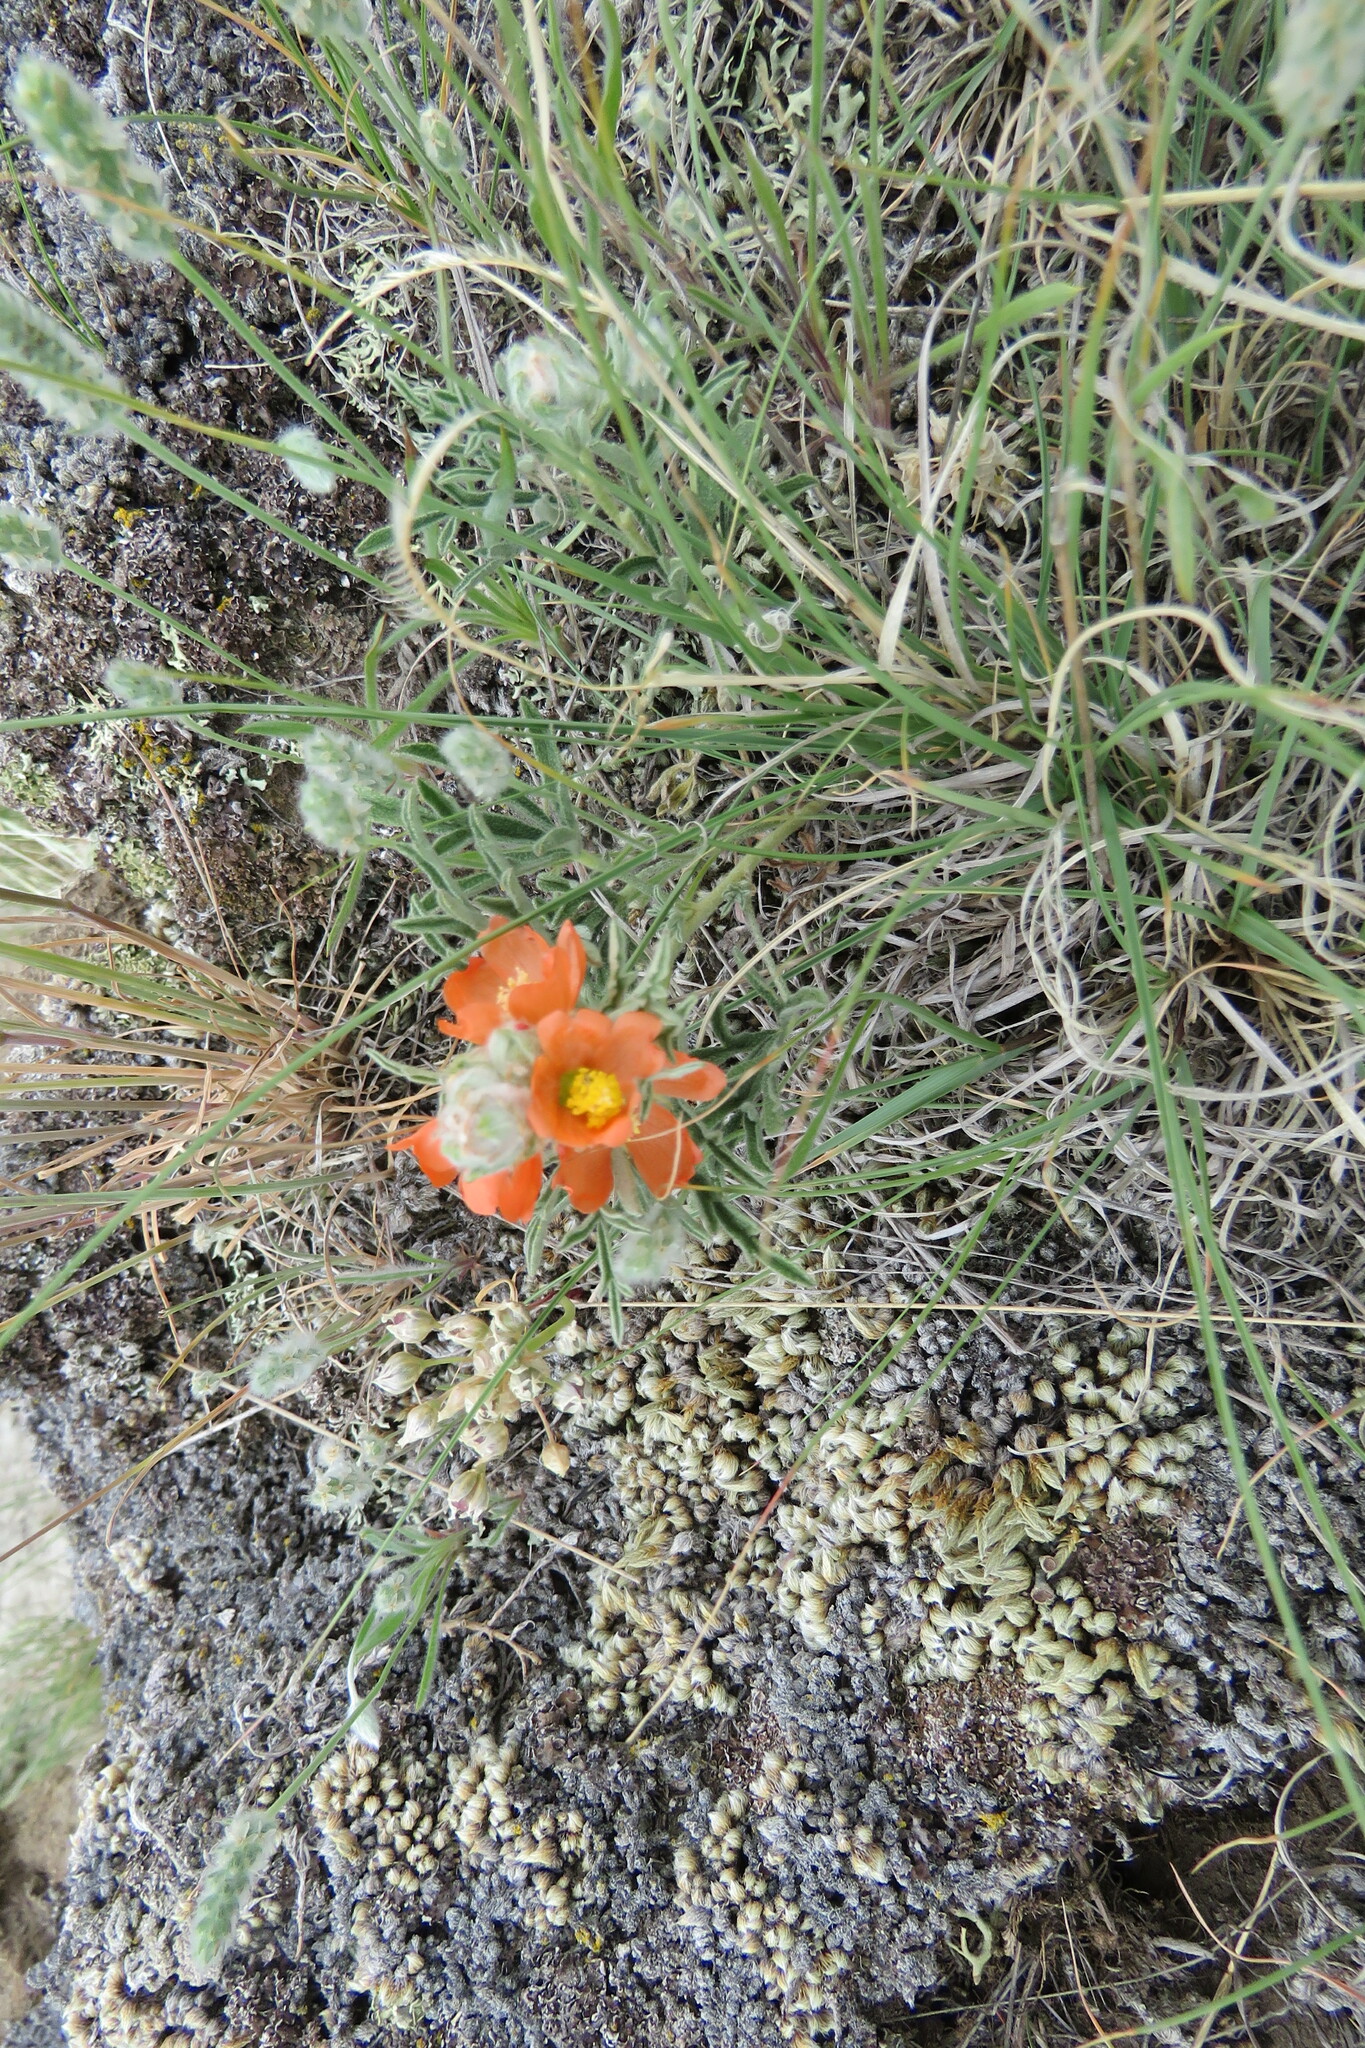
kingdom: Plantae
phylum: Tracheophyta
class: Magnoliopsida
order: Malvales
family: Malvaceae
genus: Sphaeralcea
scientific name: Sphaeralcea coccinea
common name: Moss-rose
